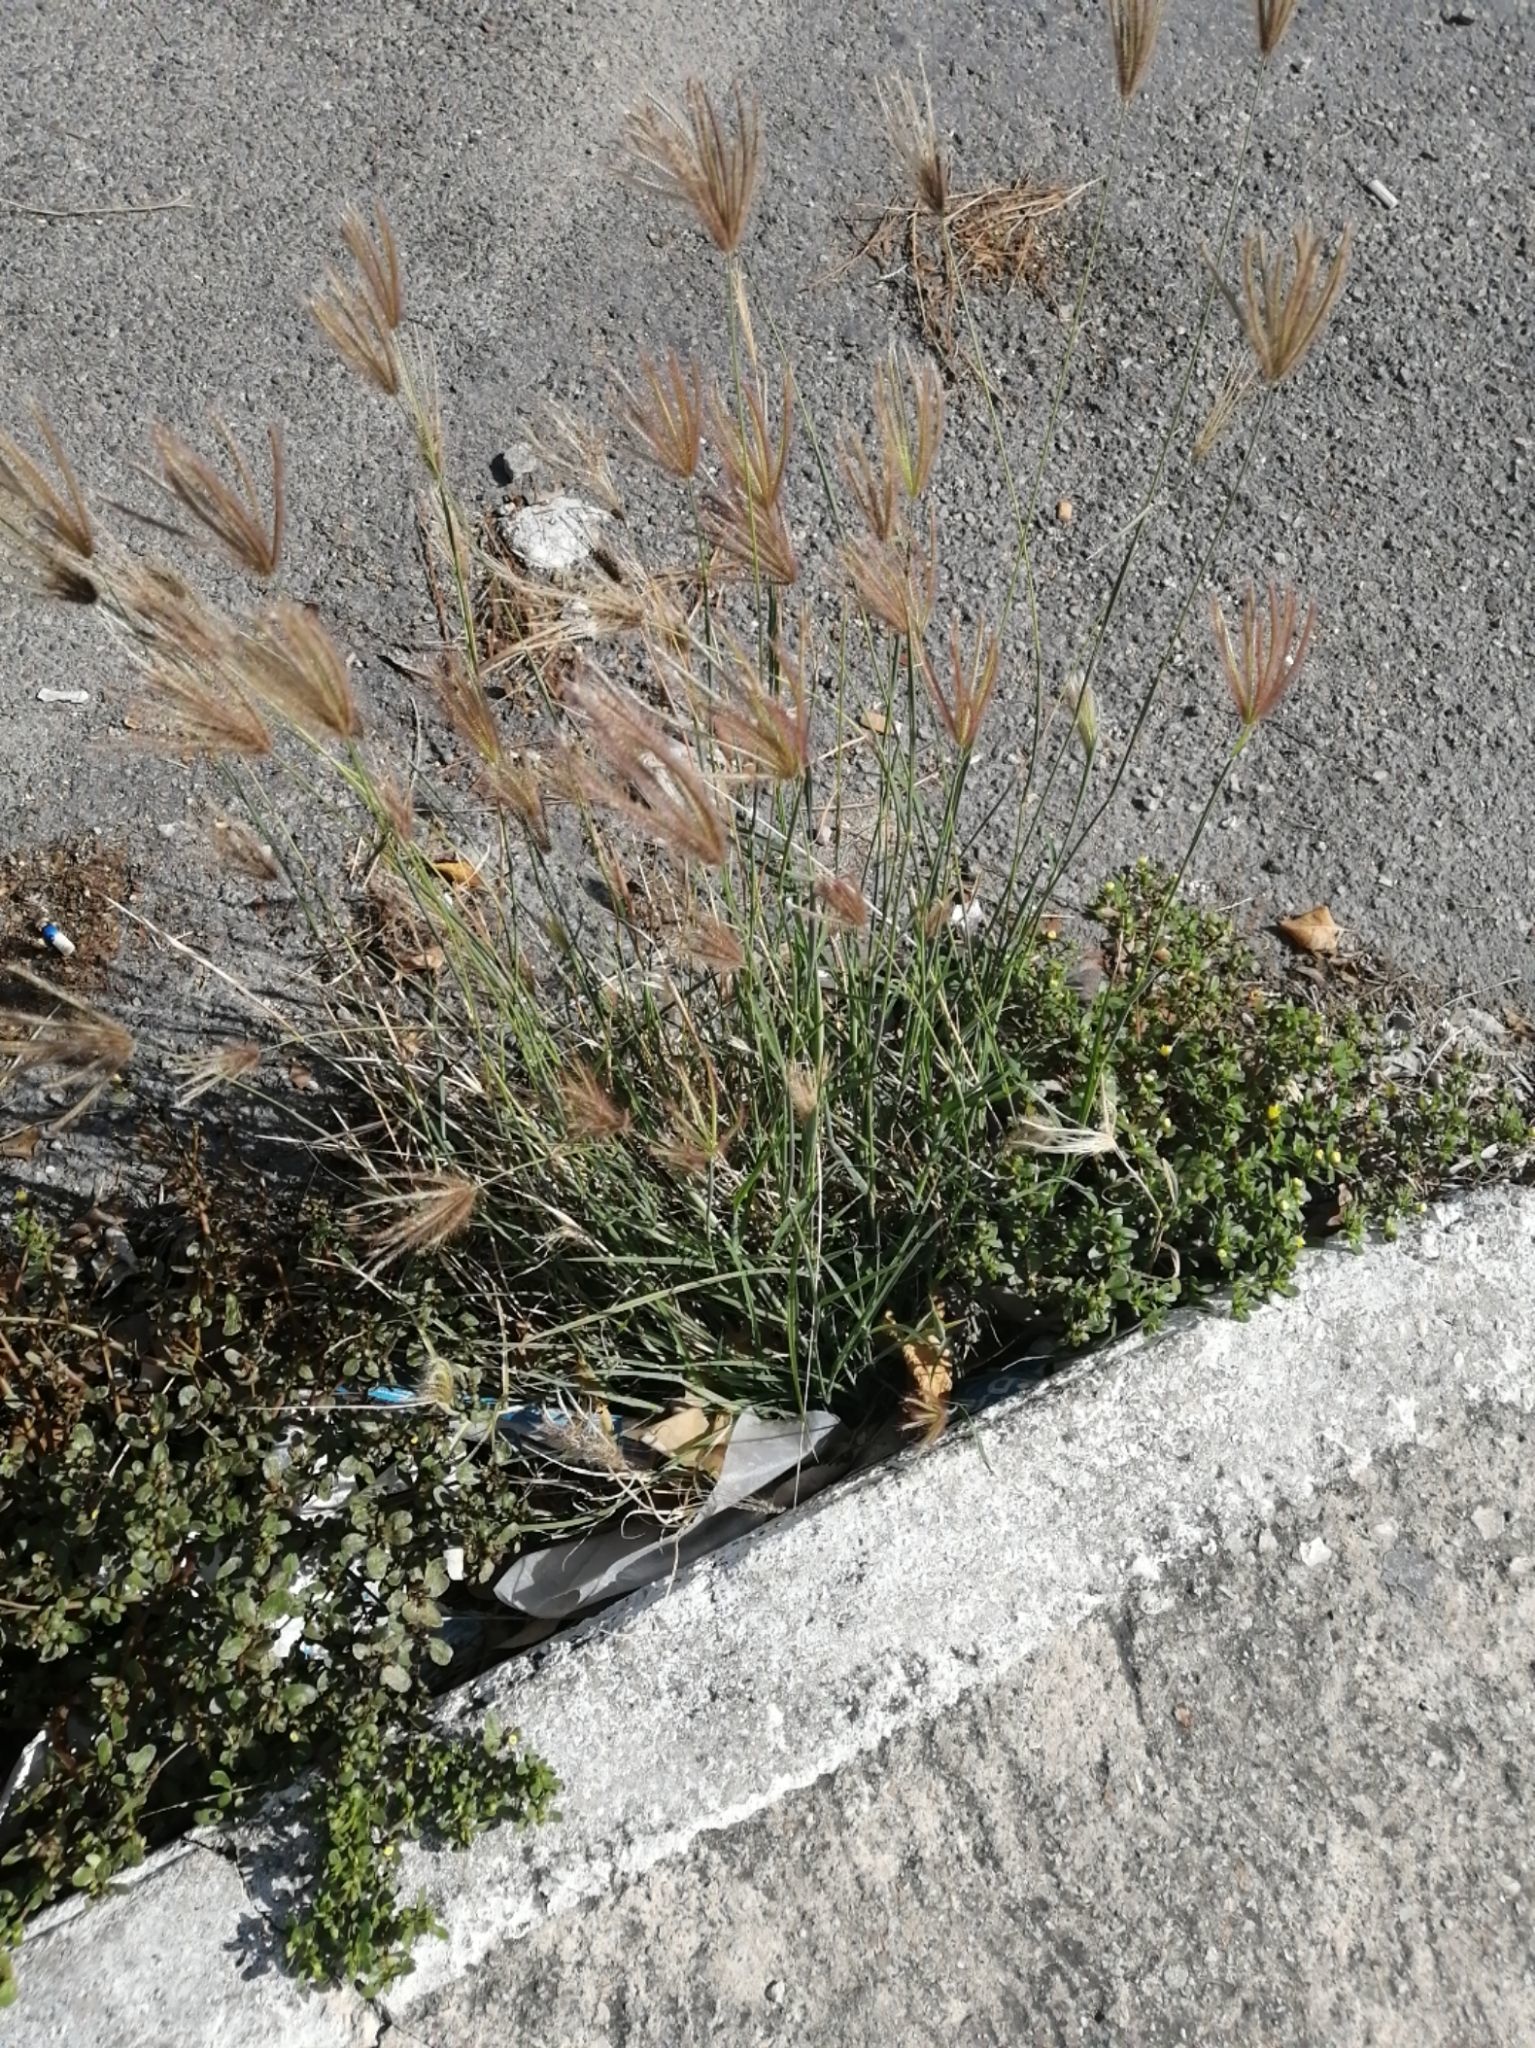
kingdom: Plantae
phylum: Tracheophyta
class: Liliopsida
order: Poales
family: Poaceae
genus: Chloris
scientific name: Chloris barbata
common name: Swollen fingergrass
